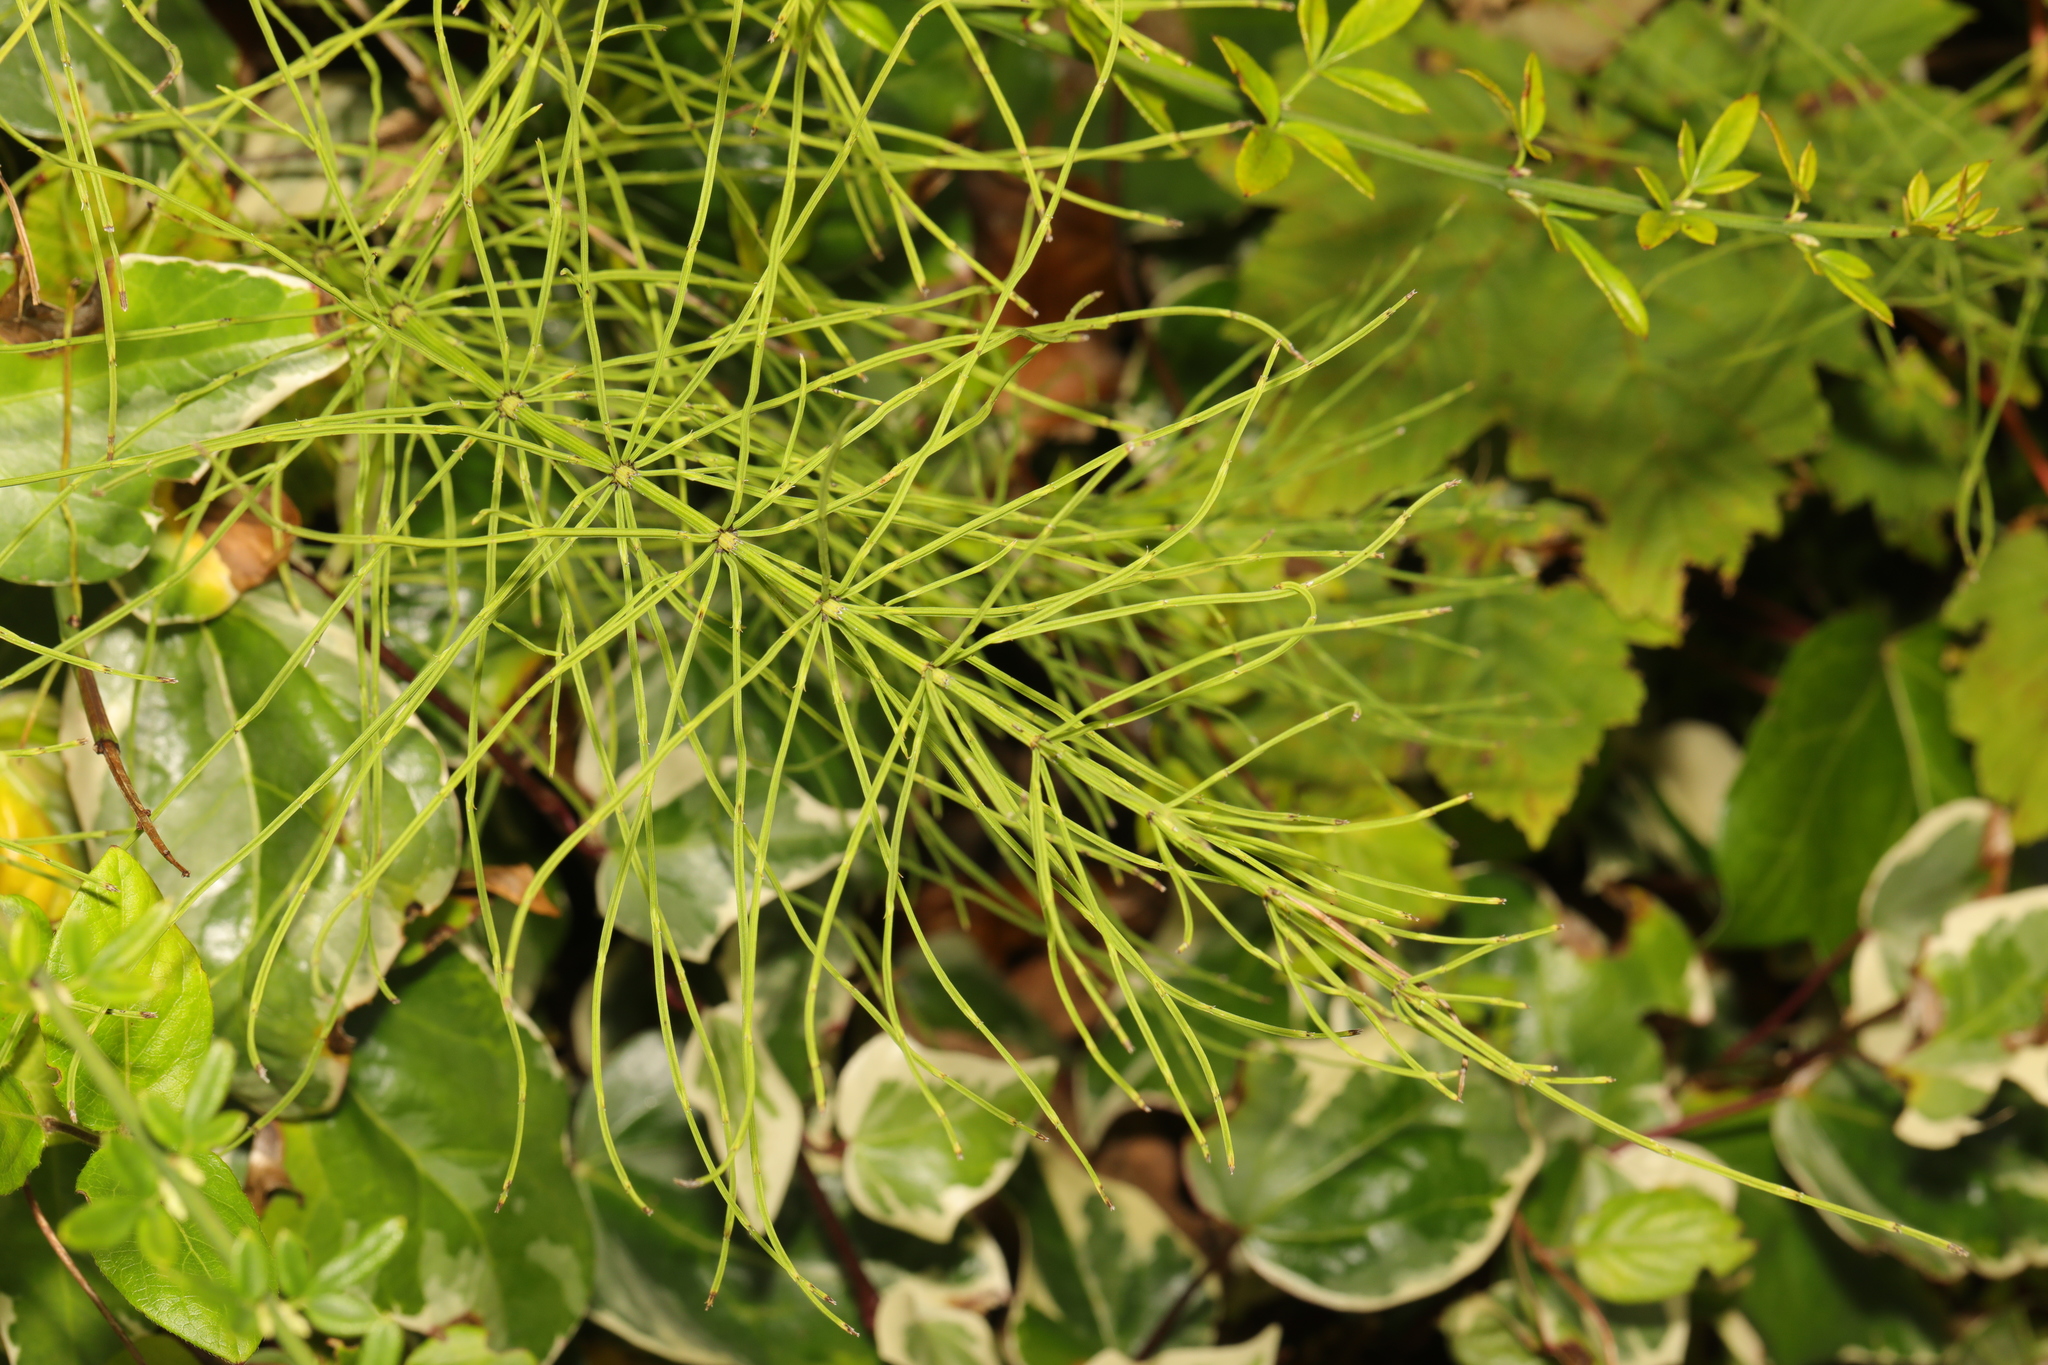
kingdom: Plantae
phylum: Tracheophyta
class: Polypodiopsida
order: Equisetales
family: Equisetaceae
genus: Equisetum
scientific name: Equisetum arvense
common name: Field horsetail
